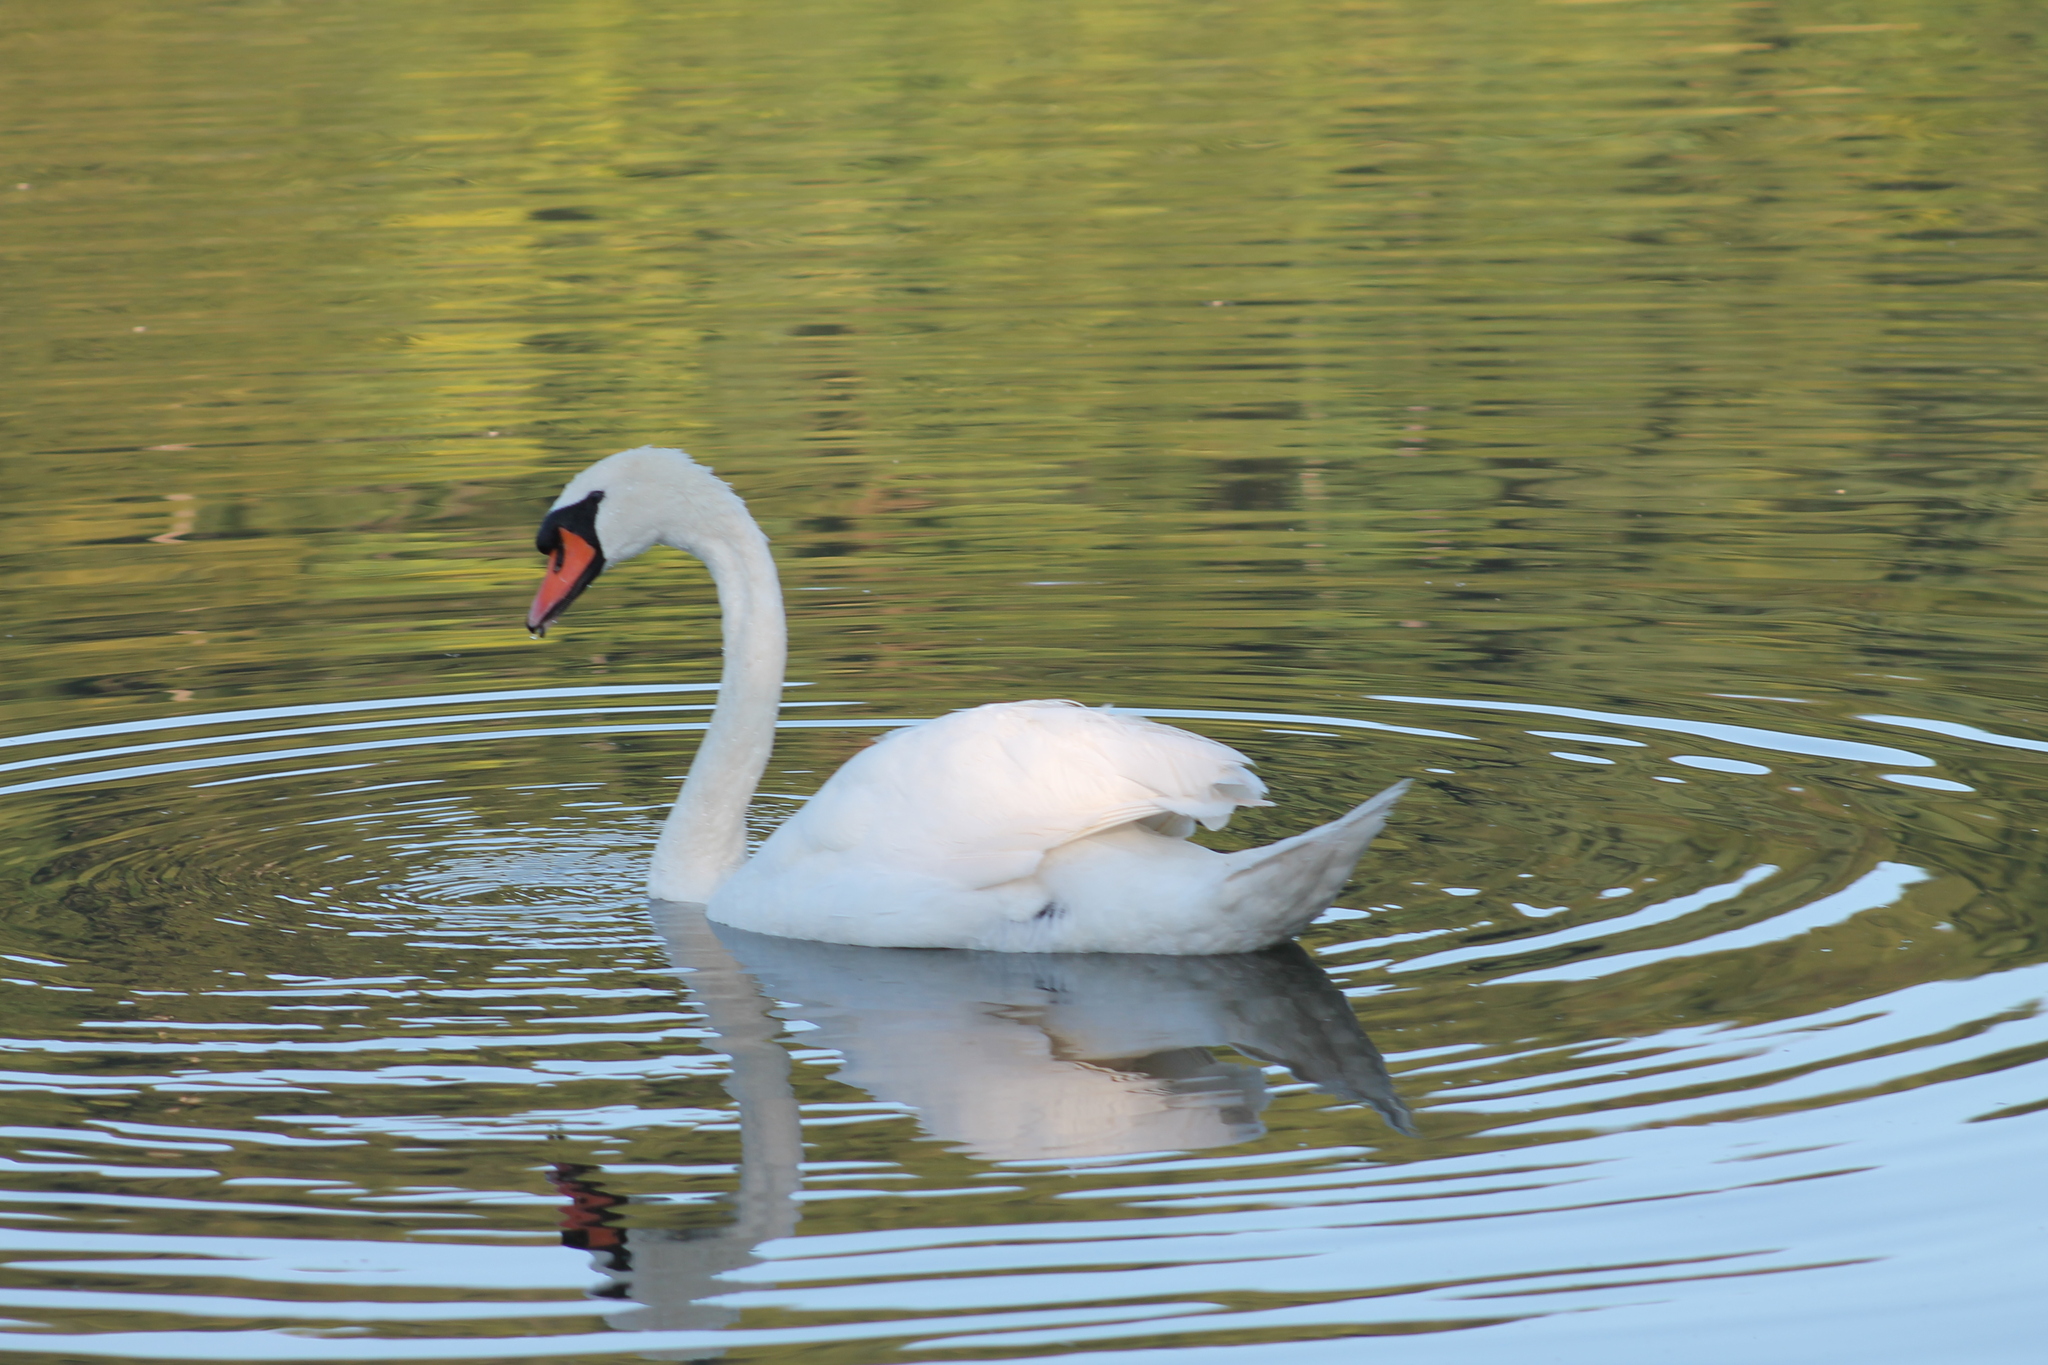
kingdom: Animalia
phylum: Chordata
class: Aves
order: Anseriformes
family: Anatidae
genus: Cygnus
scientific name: Cygnus olor
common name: Mute swan
